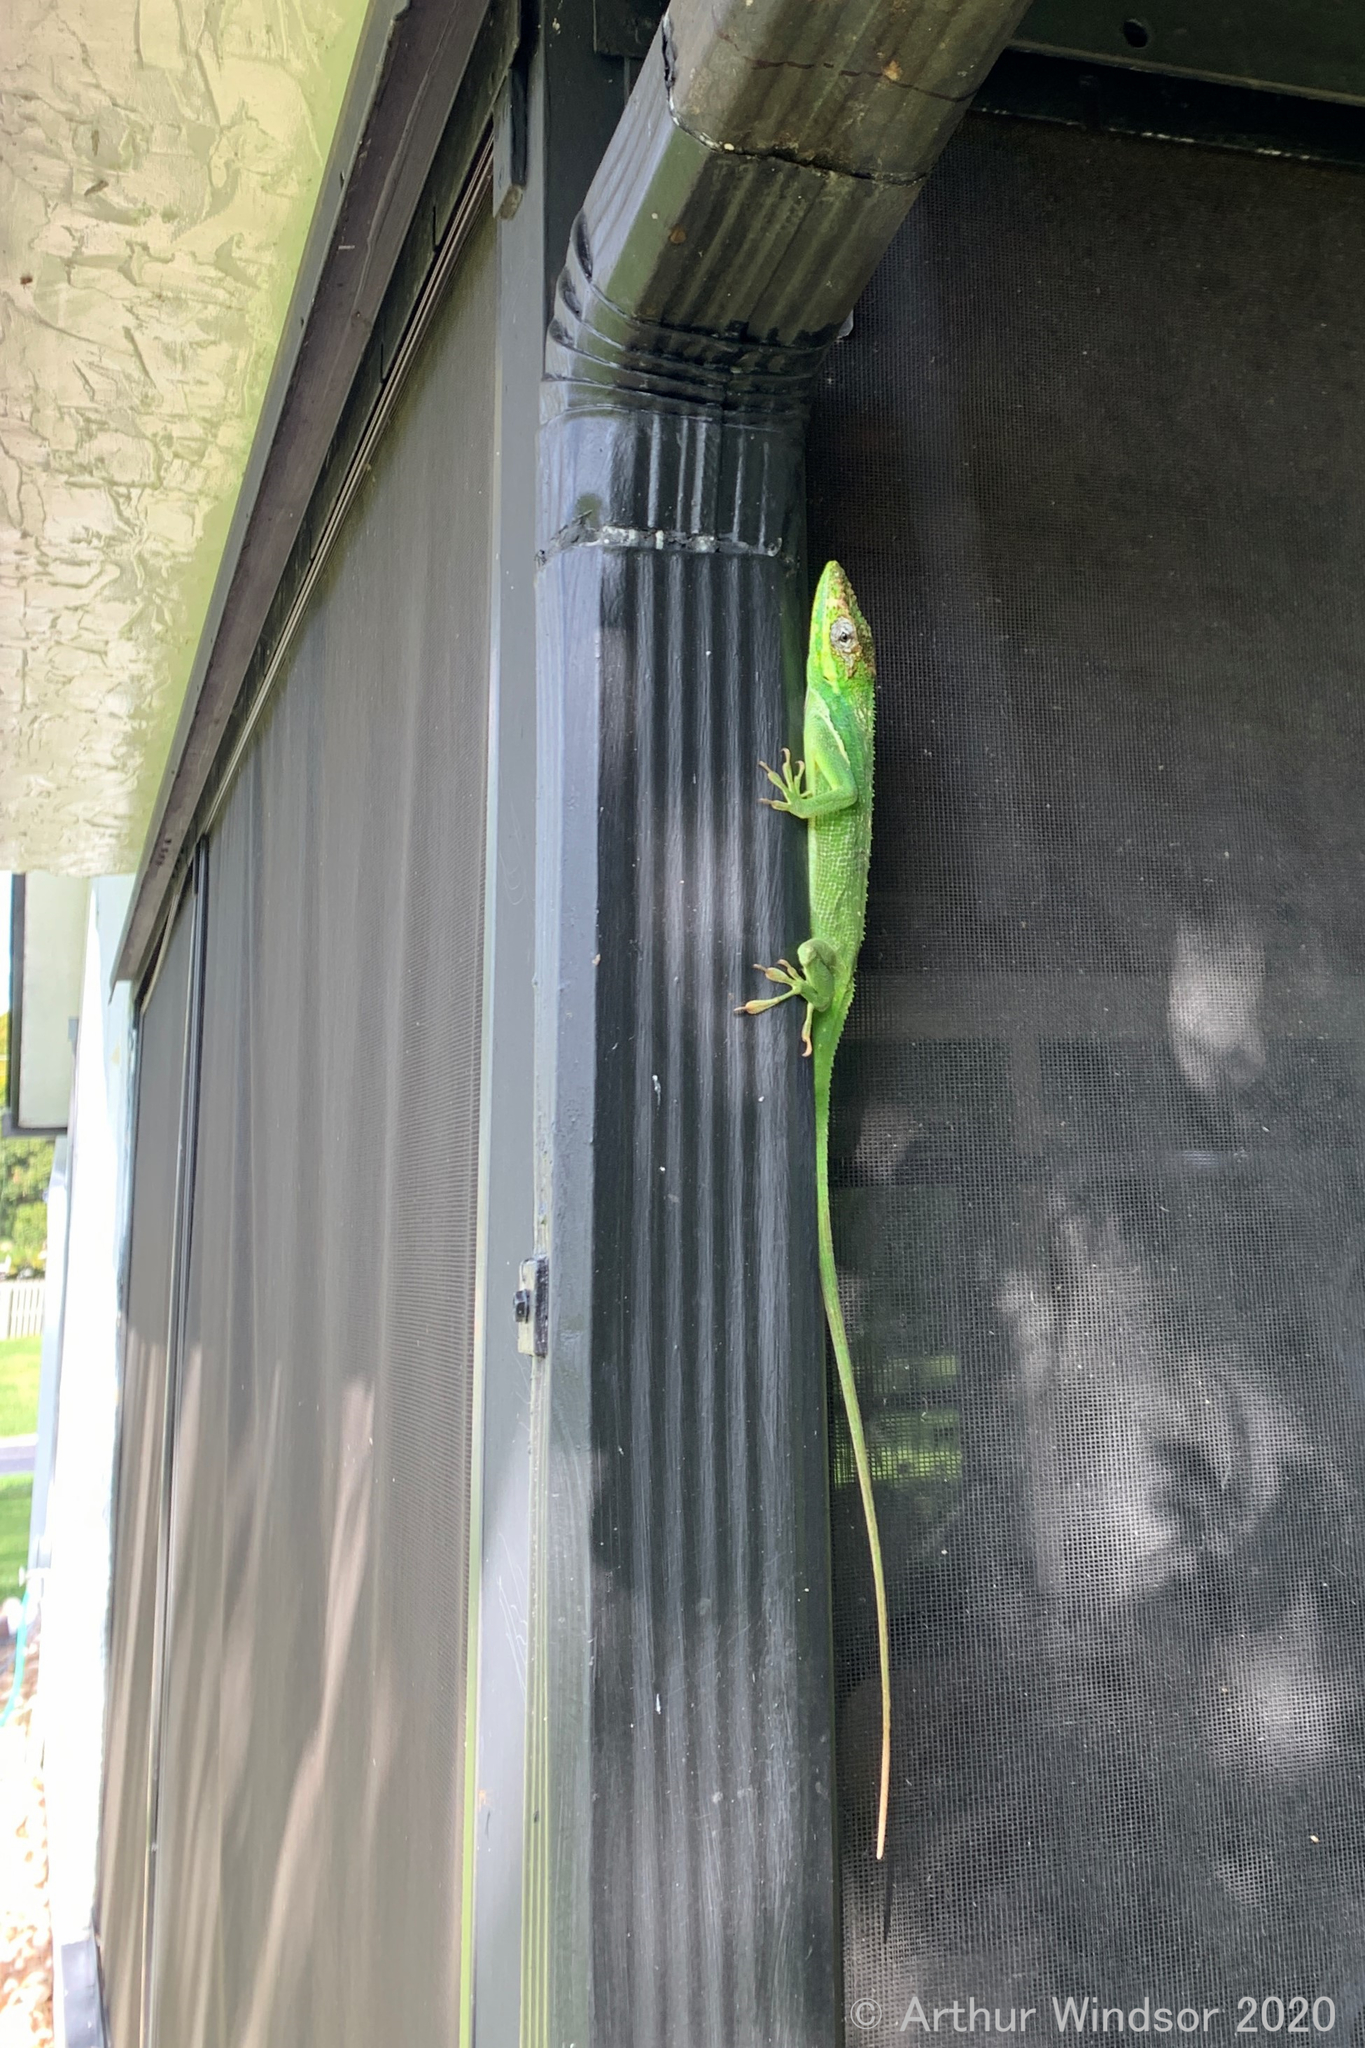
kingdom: Animalia
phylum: Chordata
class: Squamata
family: Dactyloidae
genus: Anolis
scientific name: Anolis equestris
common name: Knight anole
